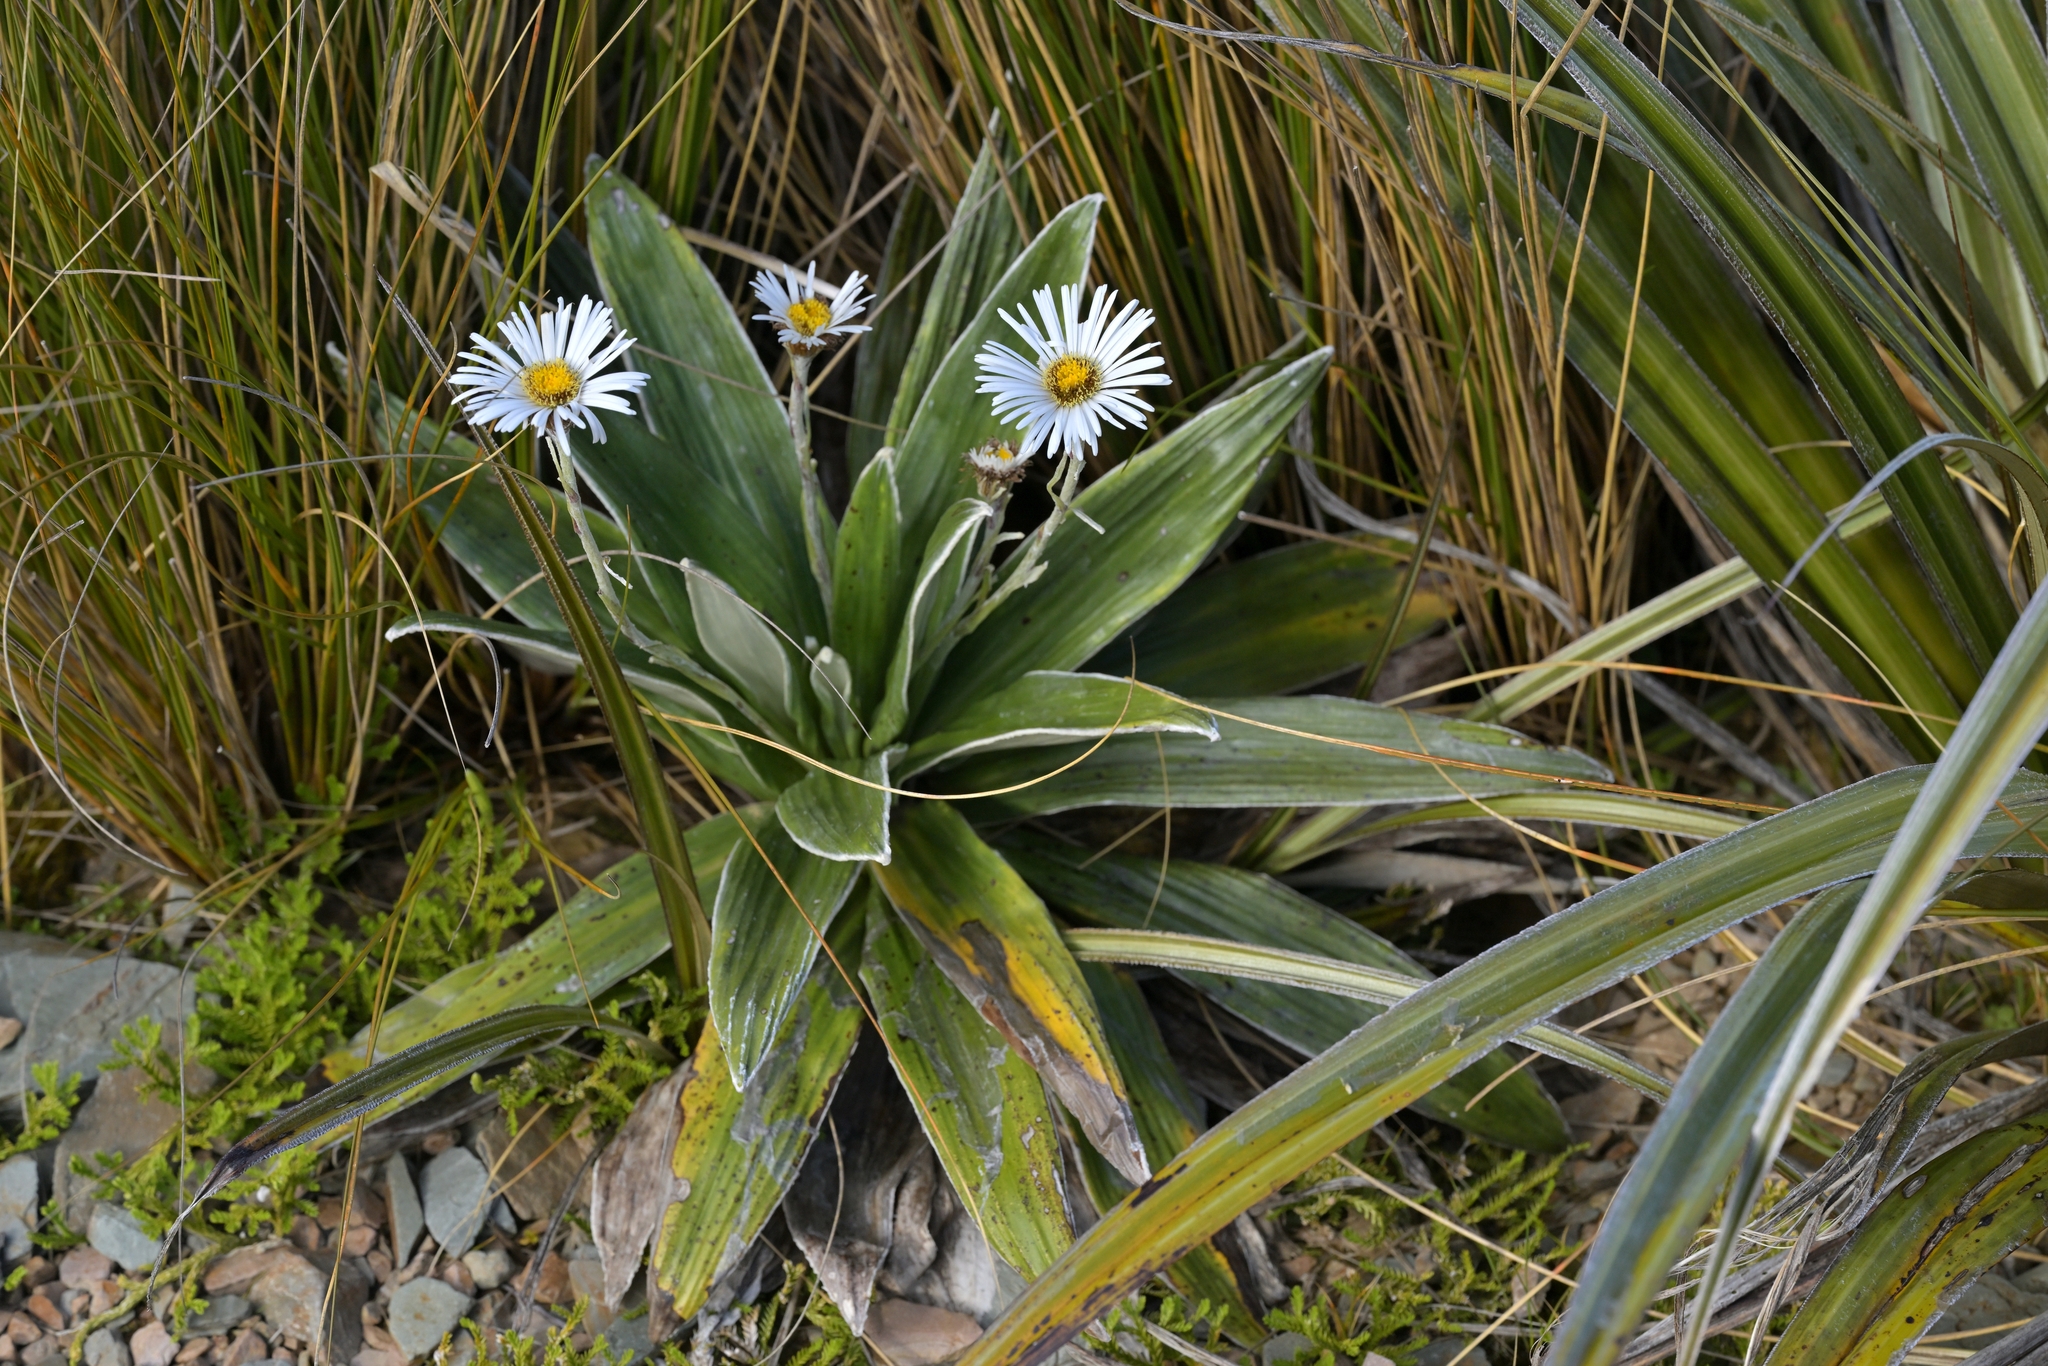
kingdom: Plantae
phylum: Tracheophyta
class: Magnoliopsida
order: Asterales
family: Asteraceae
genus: Celmisia
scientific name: Celmisia semicordata
